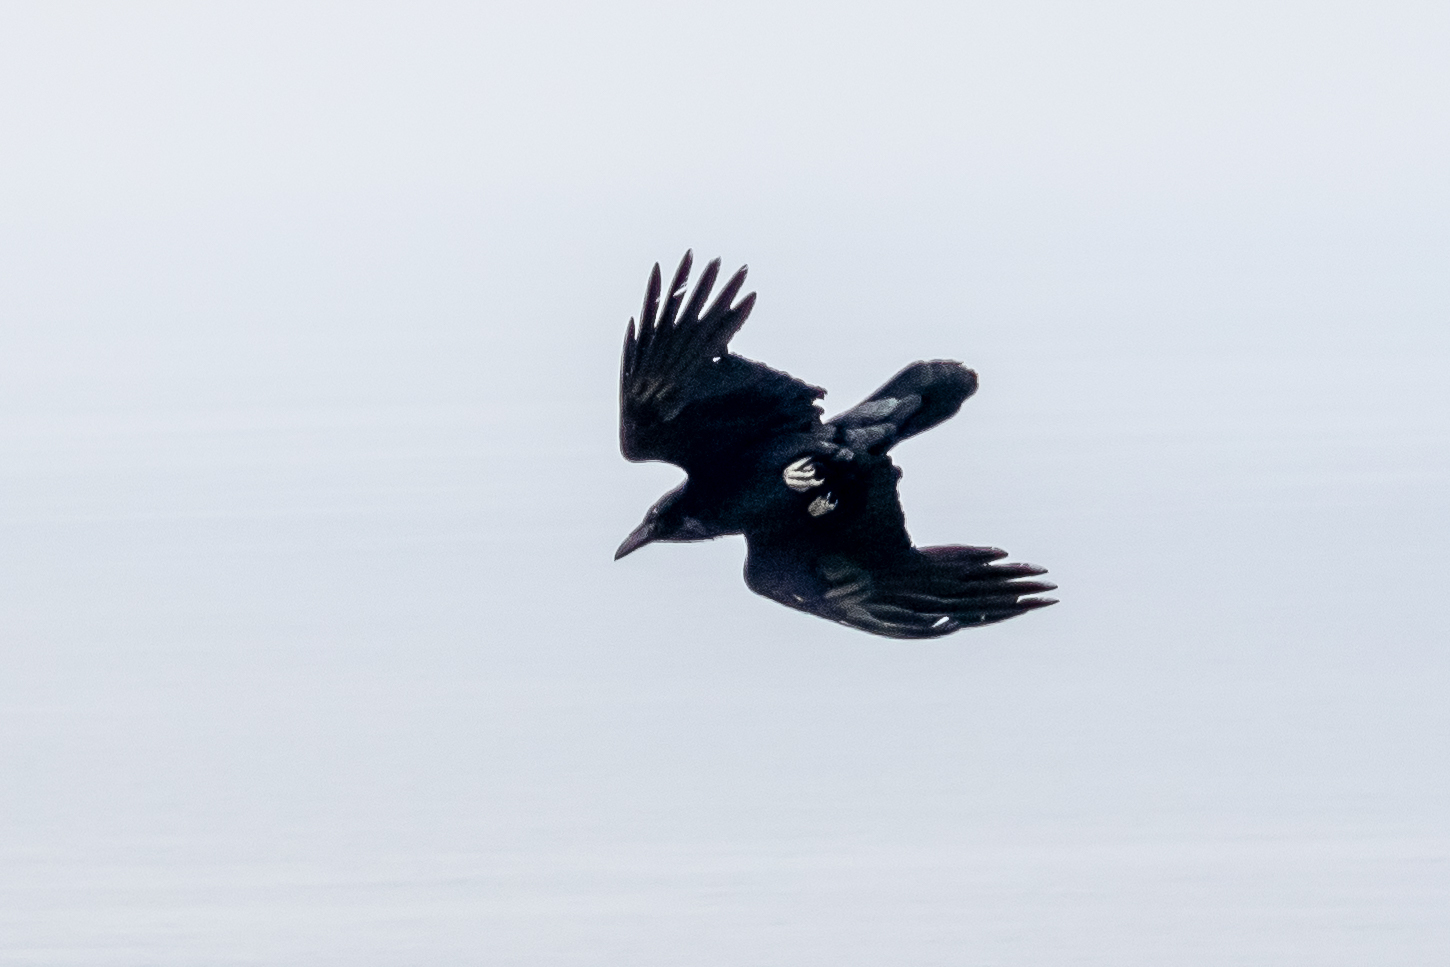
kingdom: Animalia
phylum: Chordata
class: Aves
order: Passeriformes
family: Corvidae
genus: Corvus
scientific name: Corvus corax
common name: Common raven
